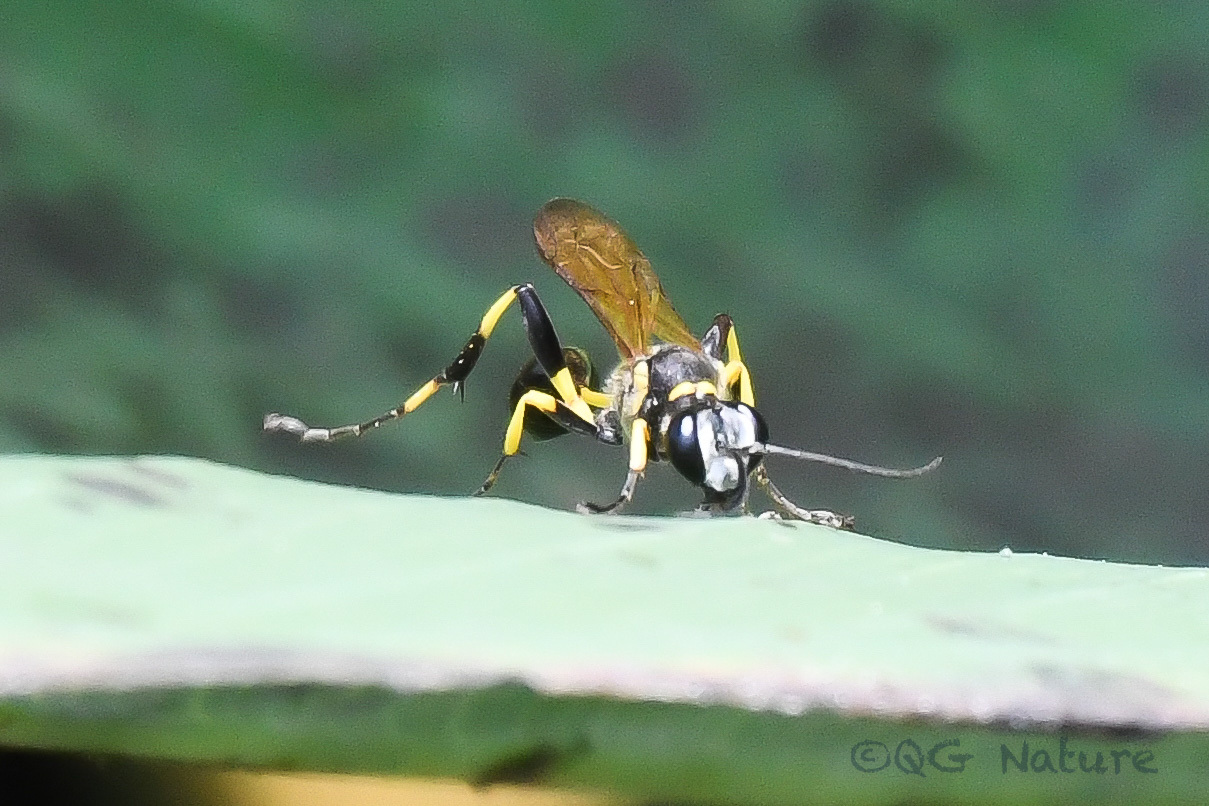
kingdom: Animalia
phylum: Arthropoda
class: Insecta
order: Hymenoptera
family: Sphecidae
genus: Sceliphron
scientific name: Sceliphron madraspatanum
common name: Mud dauber
